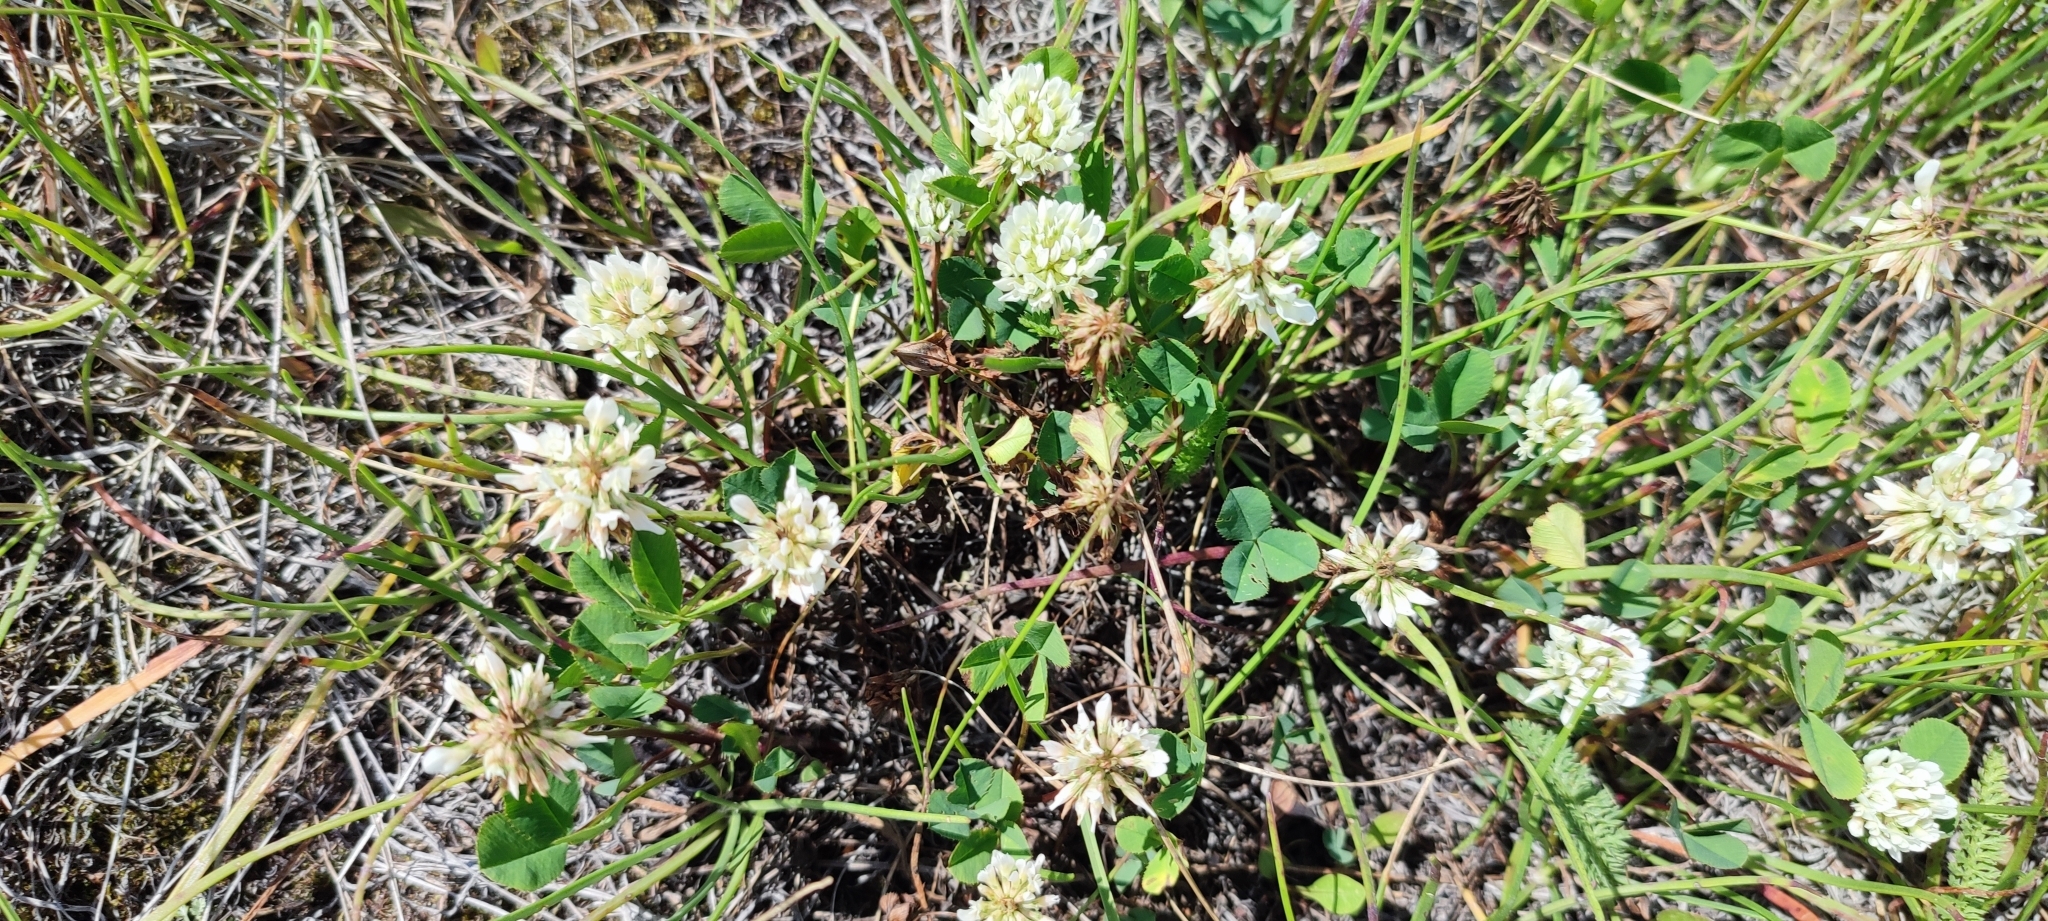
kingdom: Plantae
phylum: Tracheophyta
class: Magnoliopsida
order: Fabales
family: Fabaceae
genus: Trifolium
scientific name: Trifolium repens
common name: White clover
